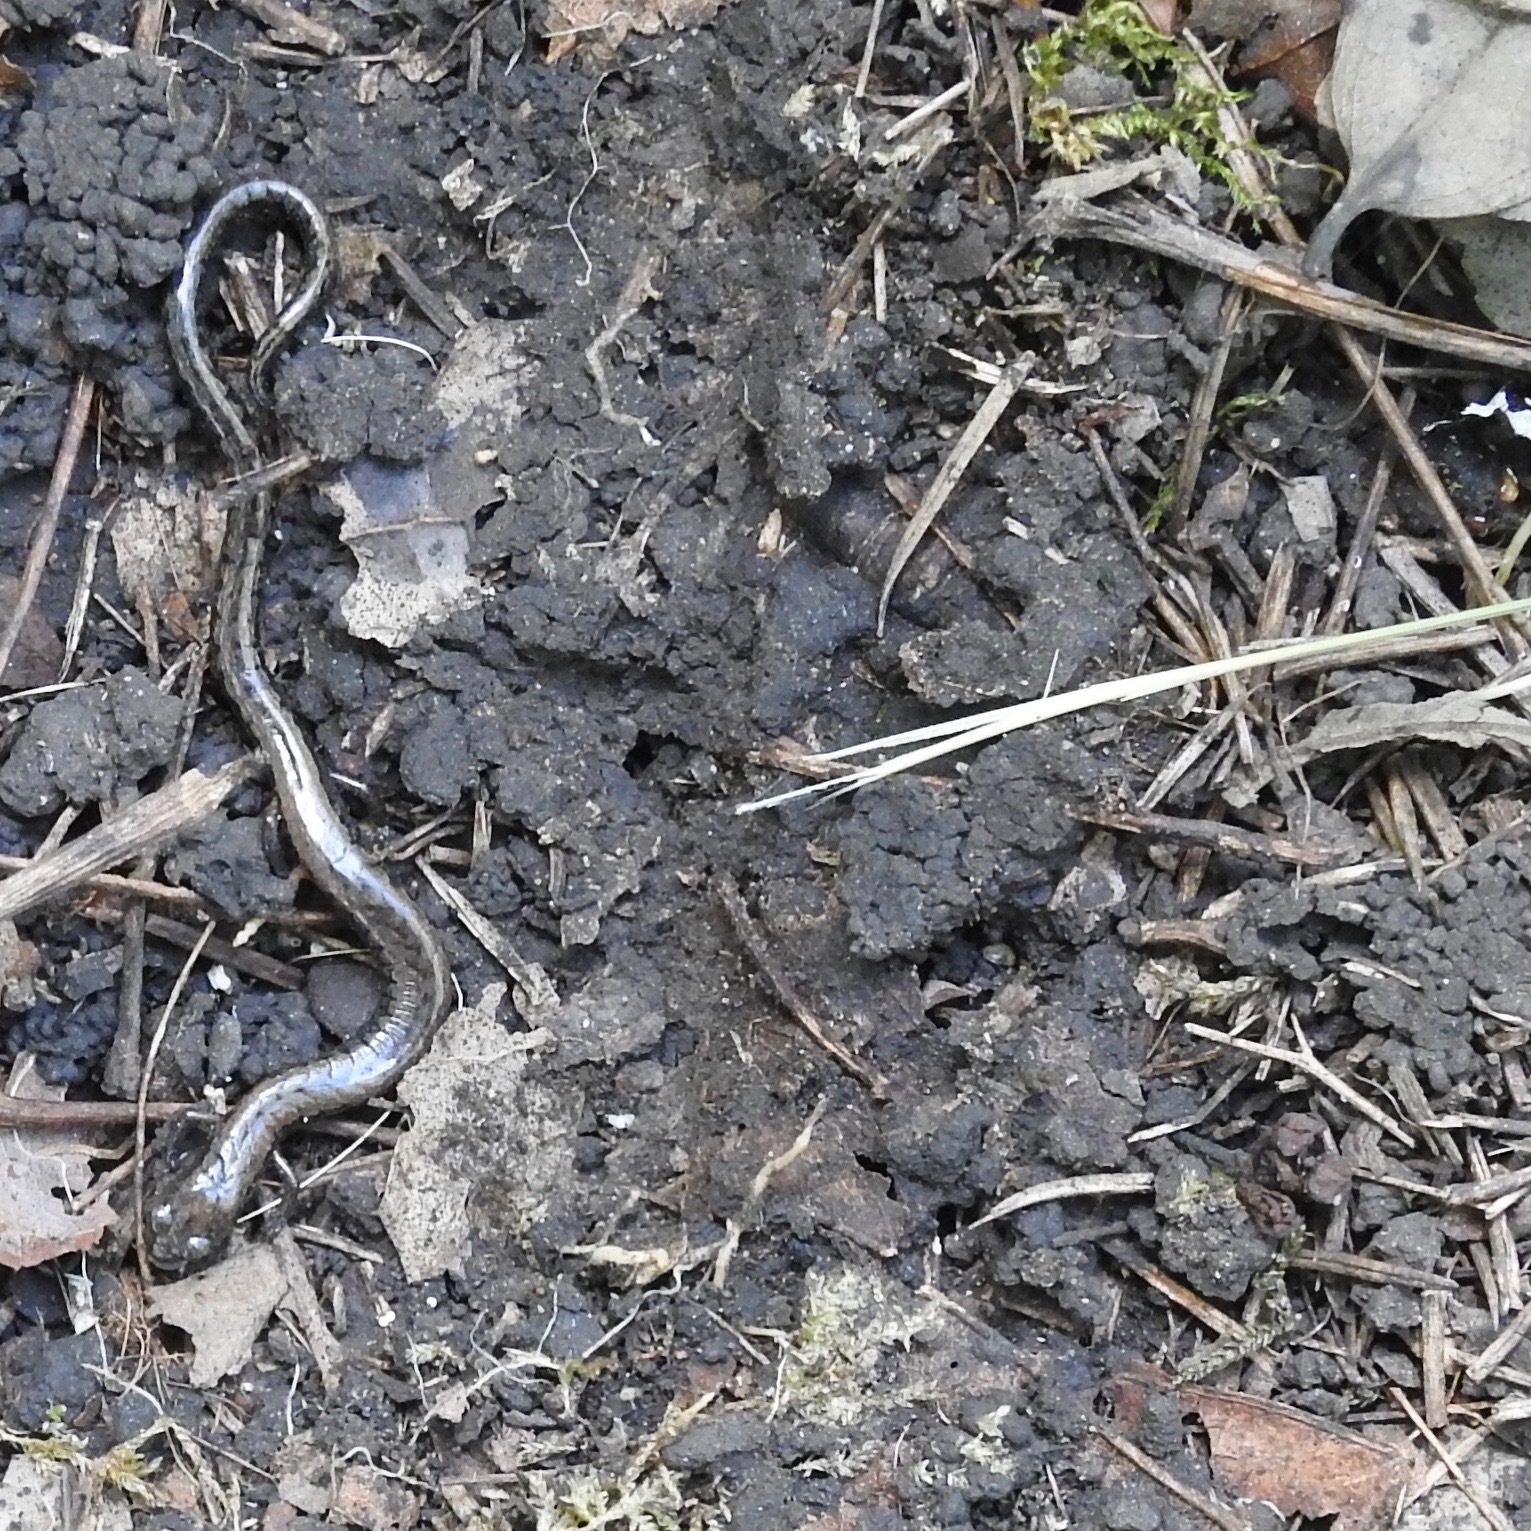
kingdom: Animalia
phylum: Chordata
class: Amphibia
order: Caudata
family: Plethodontidae
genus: Batrachoseps
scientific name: Batrachoseps attenuatus
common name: California slender salamander
